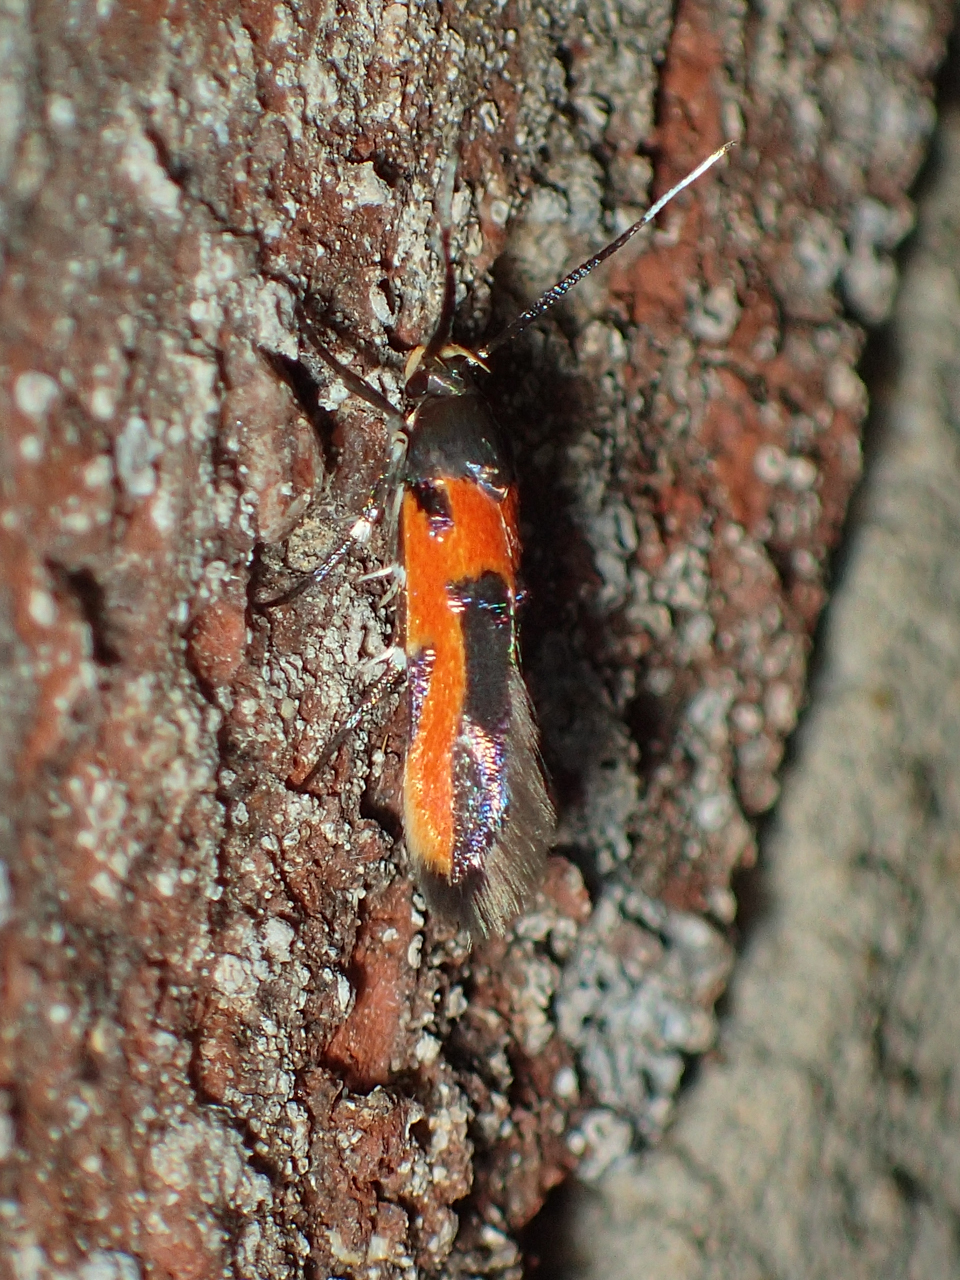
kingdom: Animalia
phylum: Arthropoda
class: Insecta
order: Lepidoptera
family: Cosmopterigidae
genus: Euclemensia
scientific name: Euclemensia bassettella
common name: Kermes scale moth
